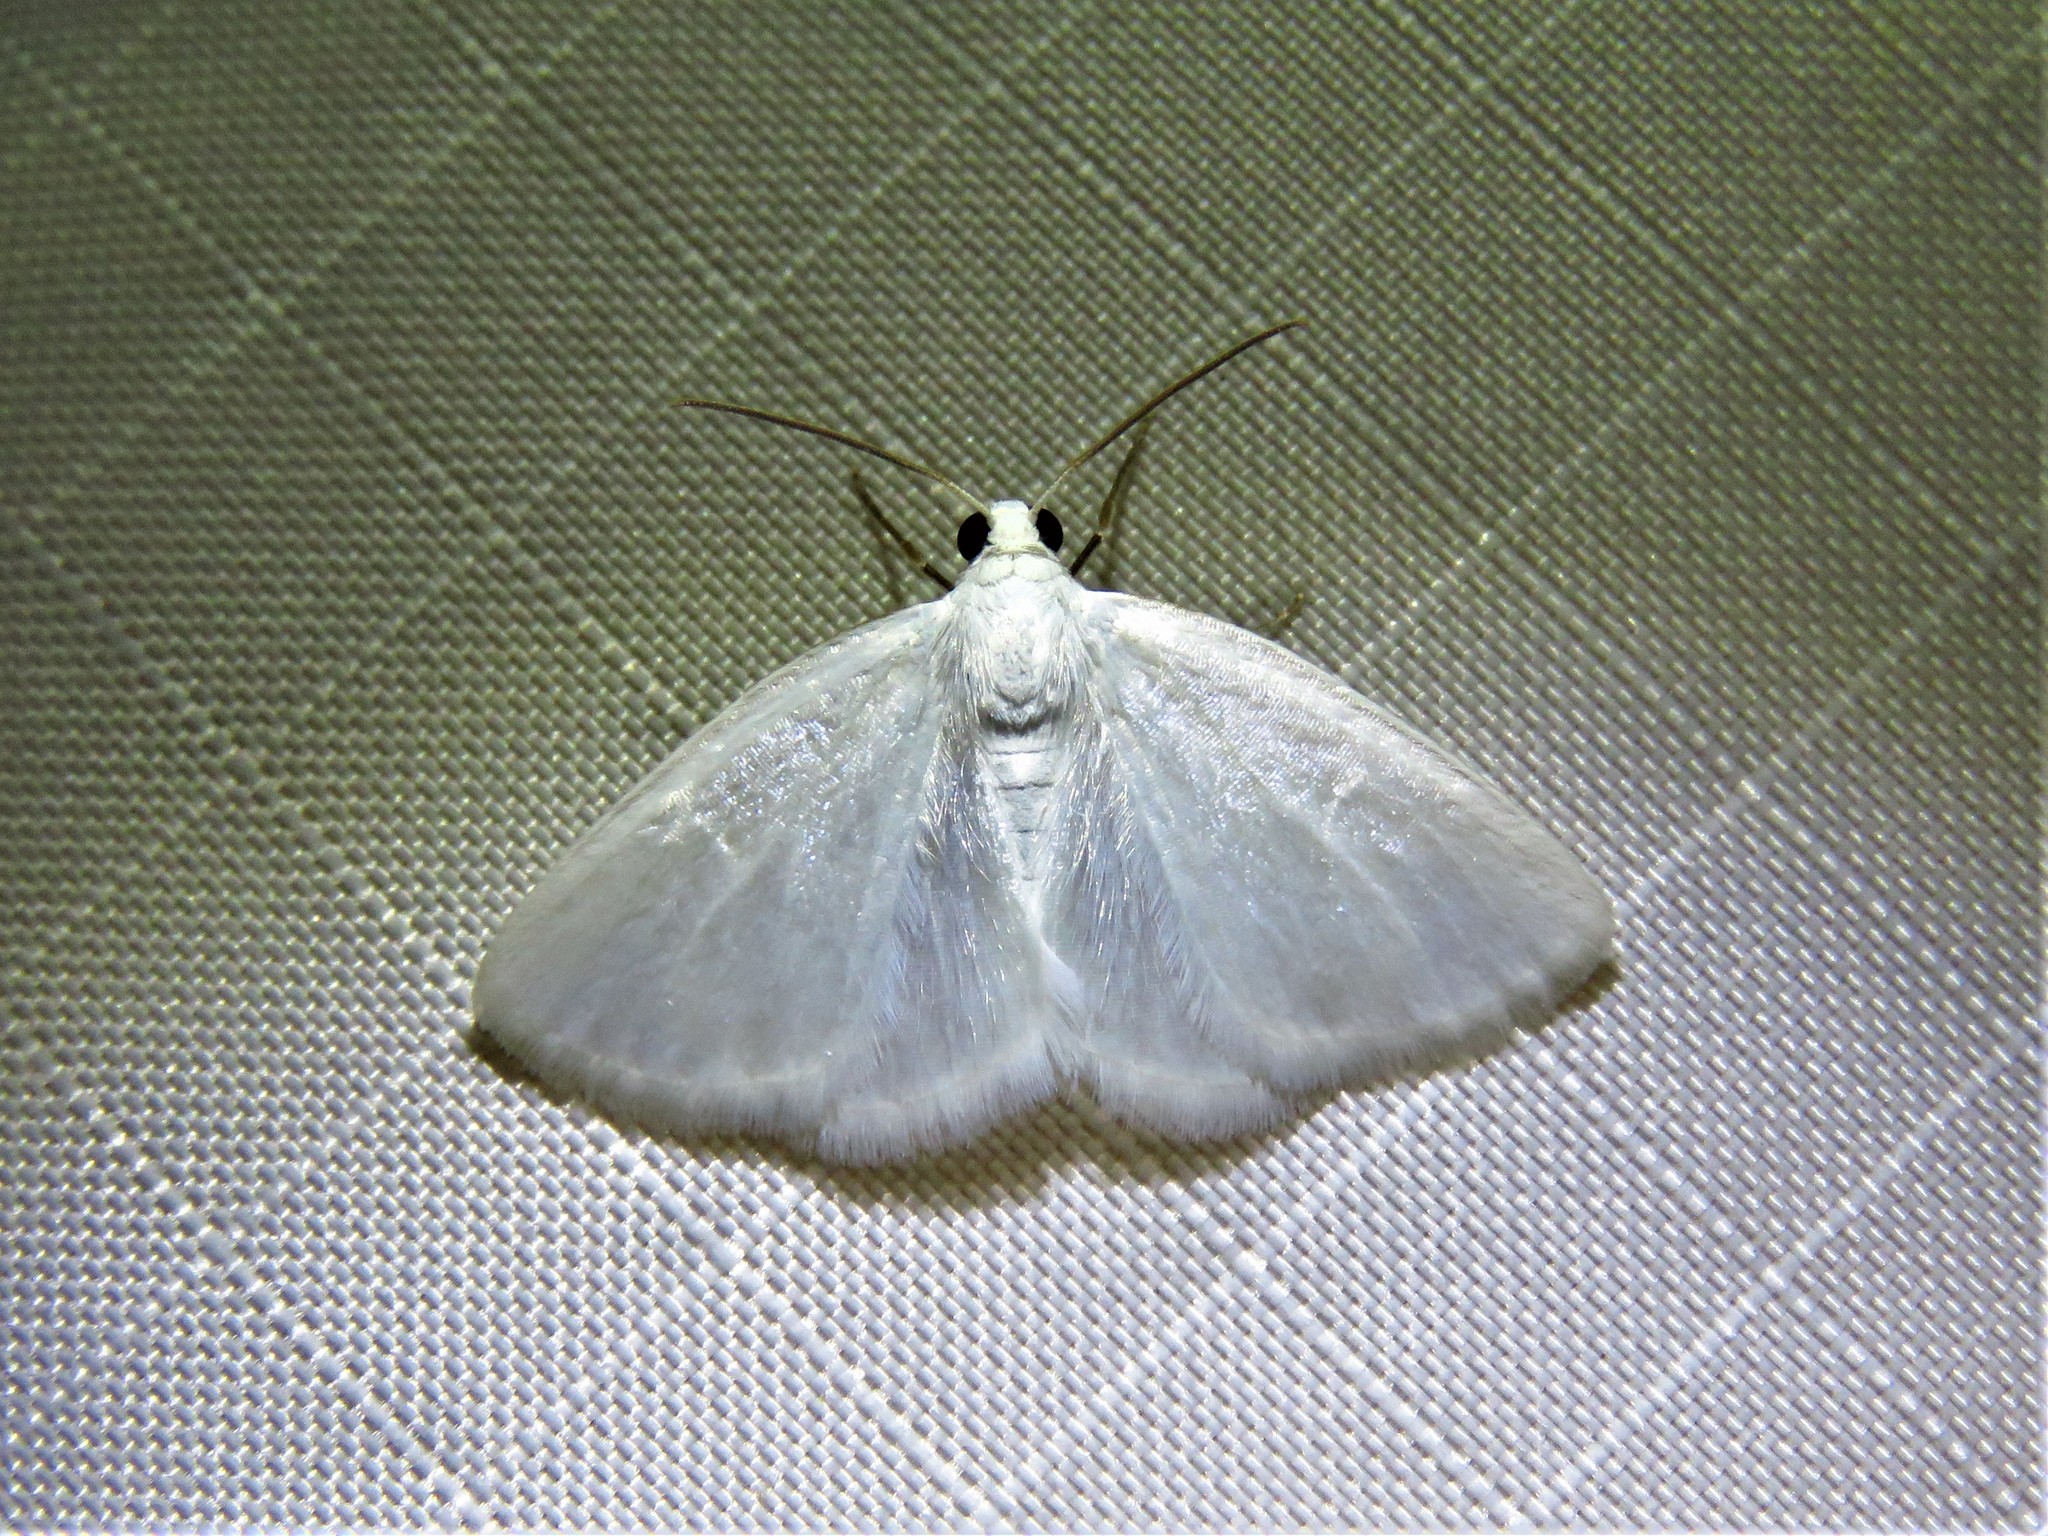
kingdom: Animalia
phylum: Arthropoda
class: Insecta
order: Lepidoptera
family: Geometridae
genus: Lomographa
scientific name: Lomographa vestaliata
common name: White spring moth
